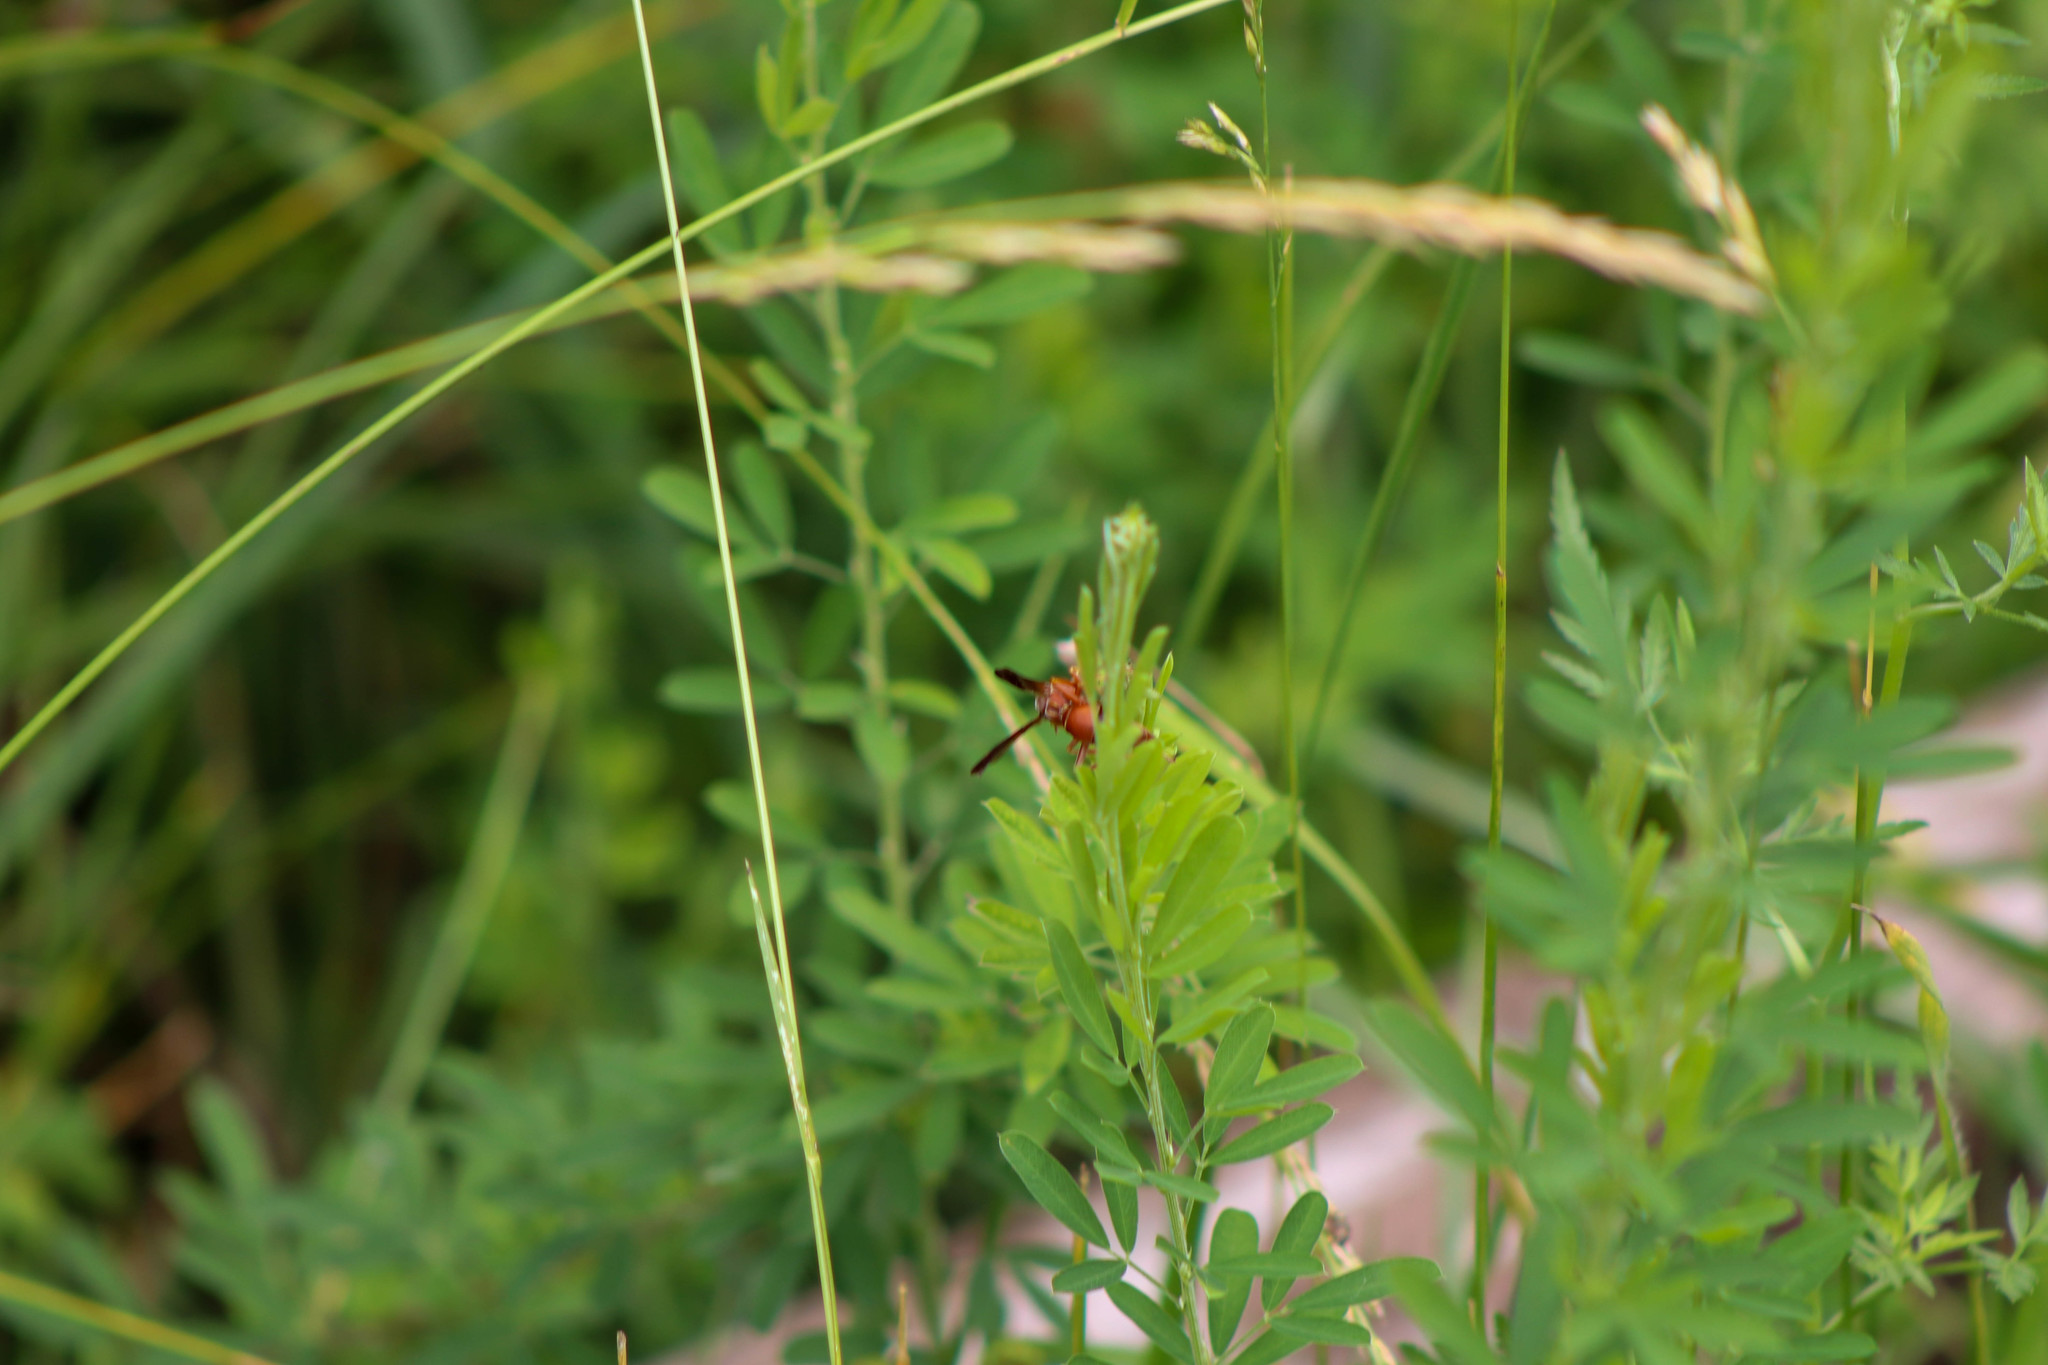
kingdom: Animalia
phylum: Arthropoda
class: Insecta
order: Hymenoptera
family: Vespidae
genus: Fuscopolistes
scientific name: Fuscopolistes
